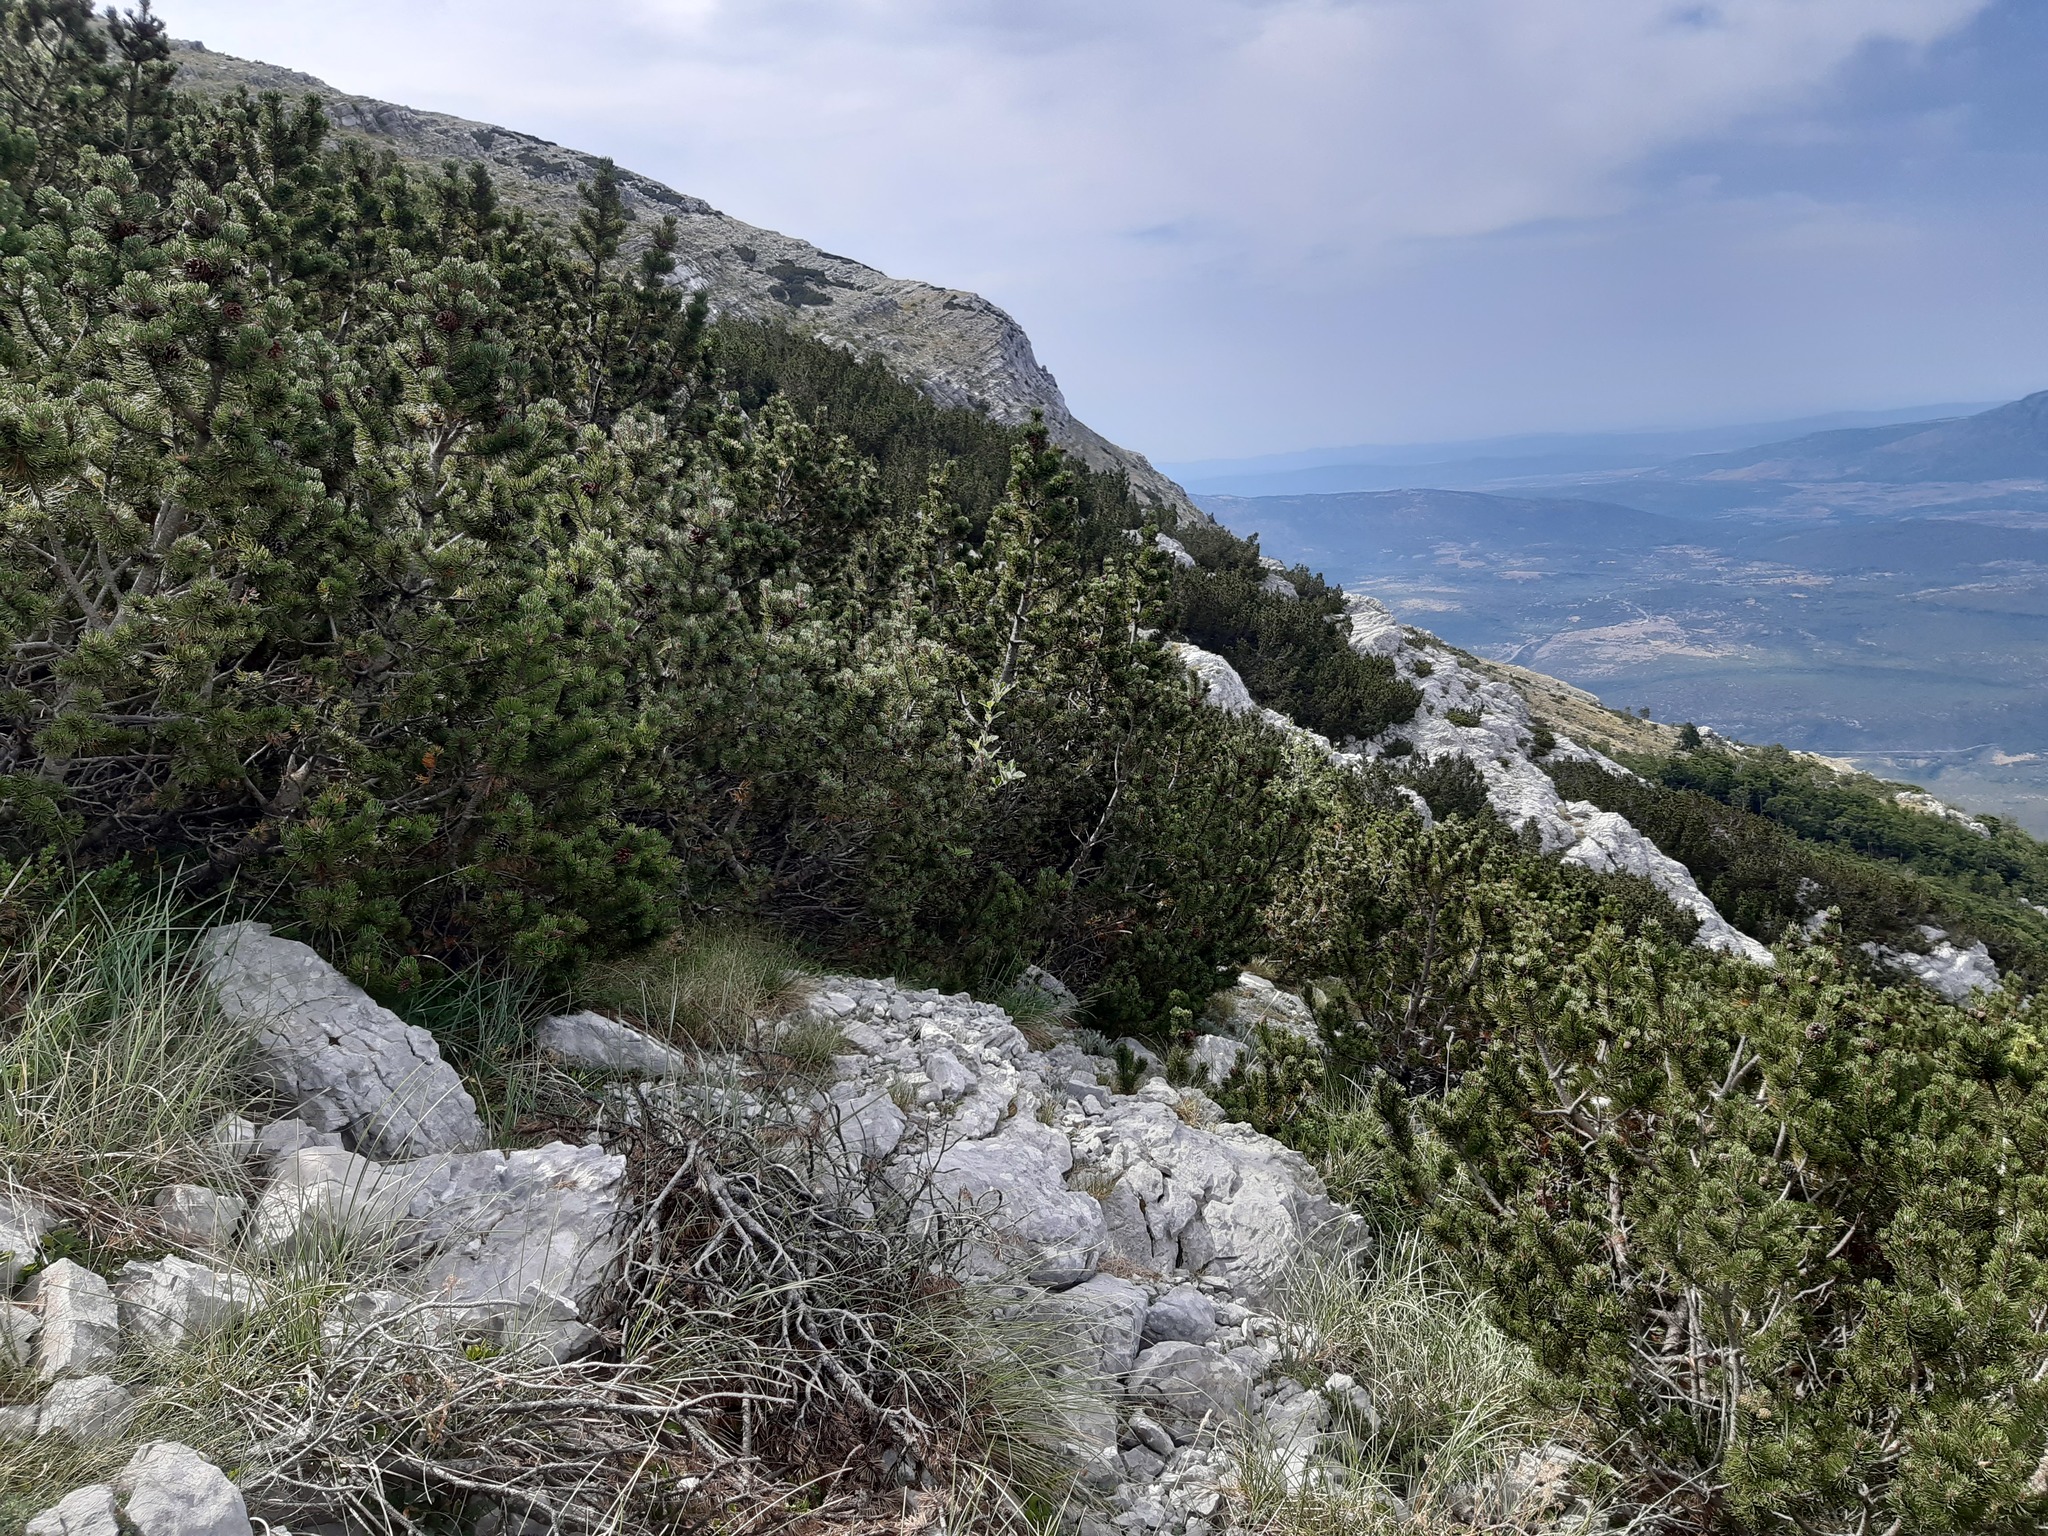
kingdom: Plantae
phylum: Tracheophyta
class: Pinopsida
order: Pinales
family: Pinaceae
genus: Pinus
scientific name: Pinus mugo
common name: Mugo pine
